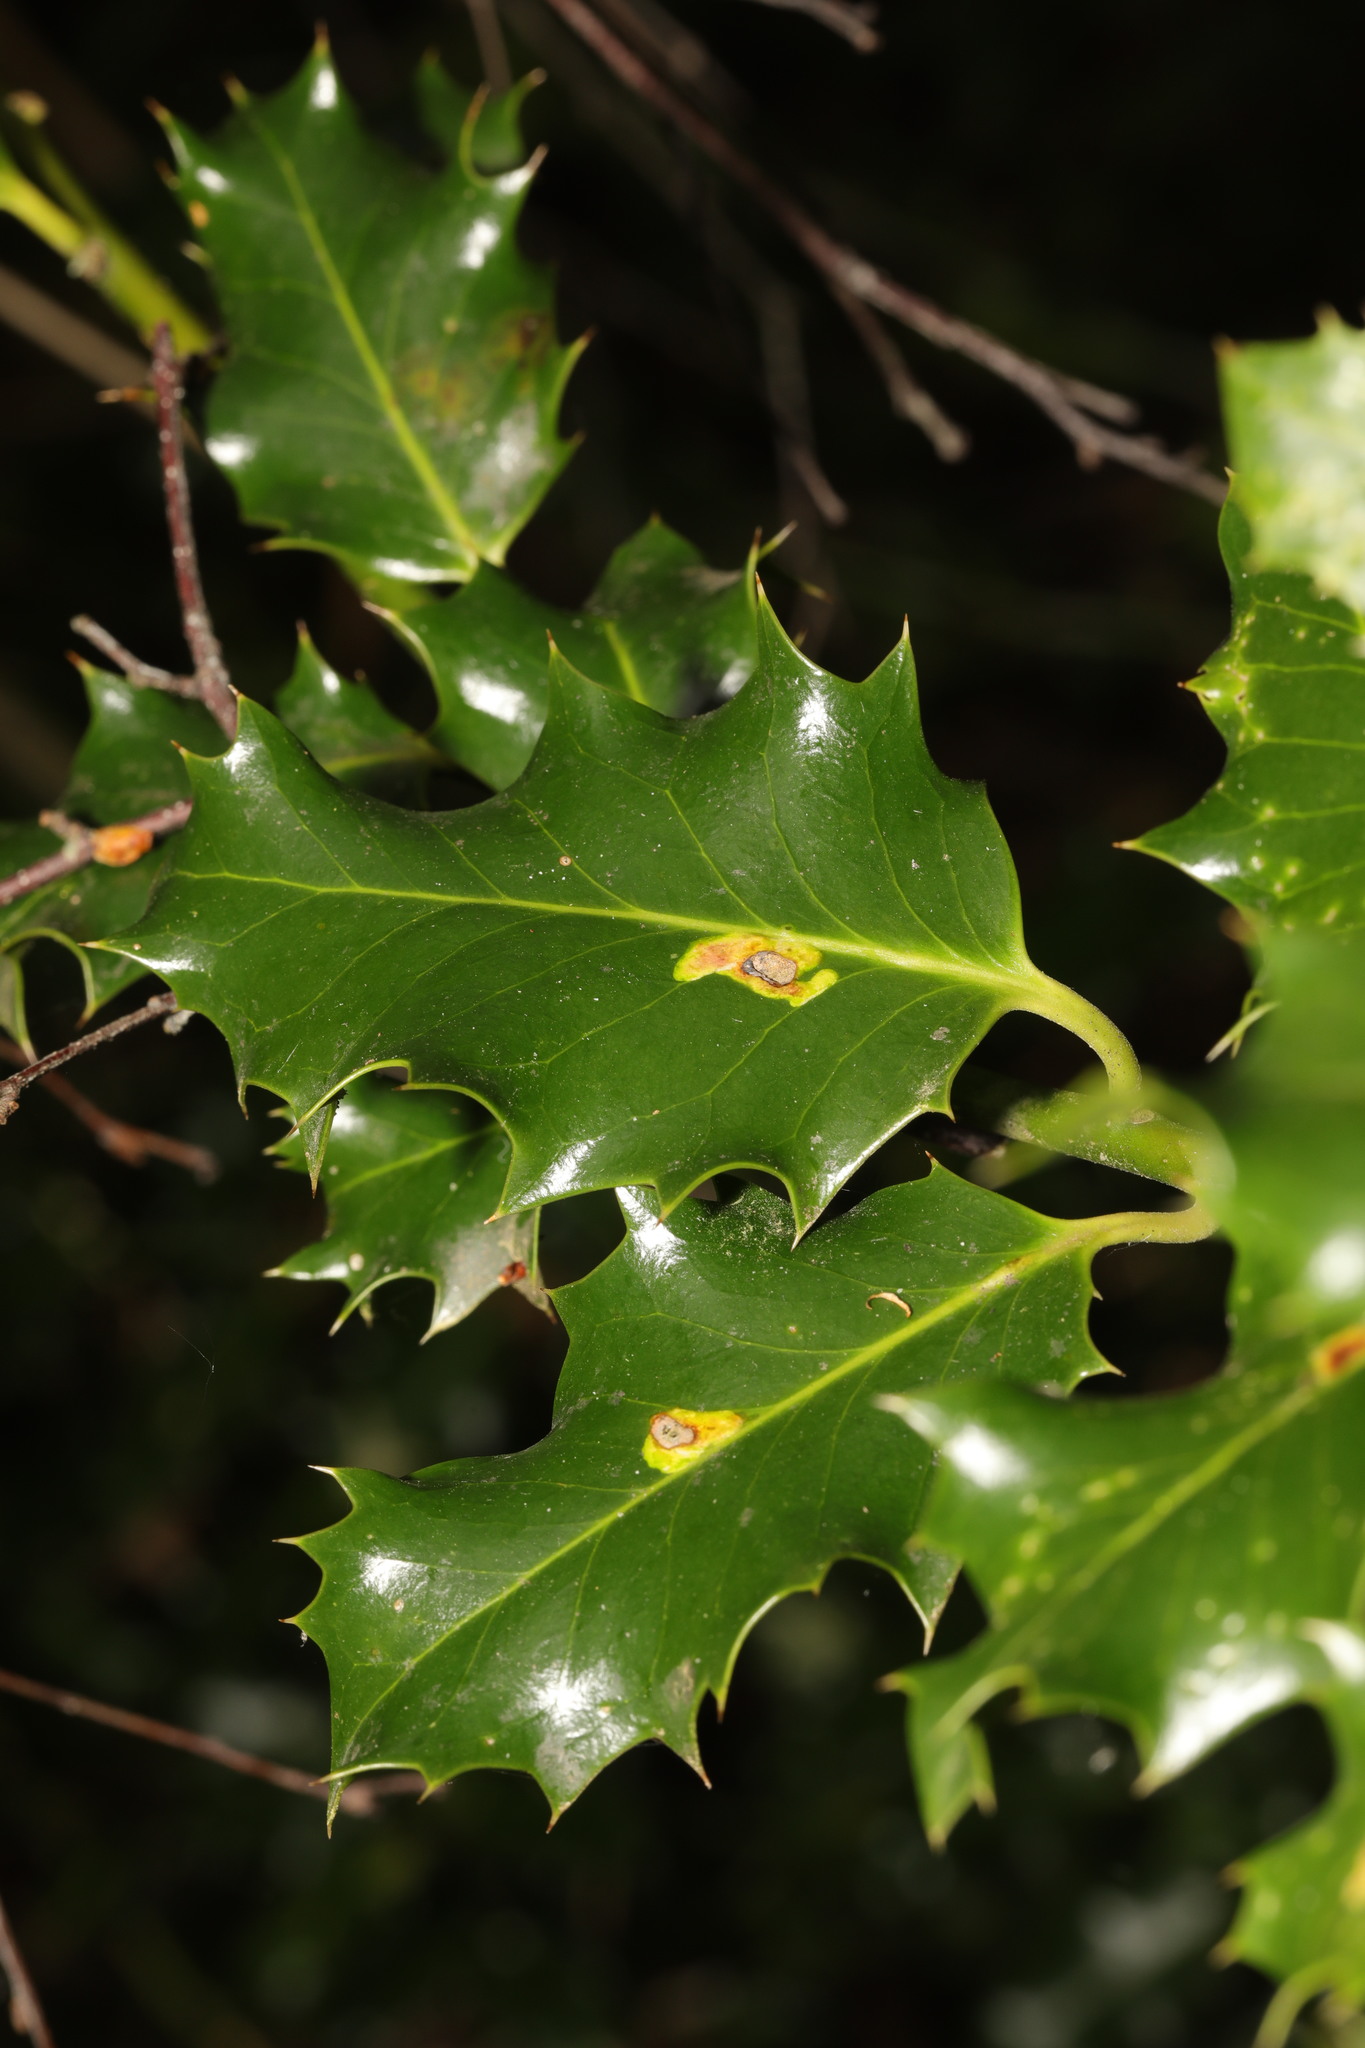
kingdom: Plantae
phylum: Tracheophyta
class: Magnoliopsida
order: Aquifoliales
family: Aquifoliaceae
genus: Ilex
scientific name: Ilex aquifolium
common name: English holly
